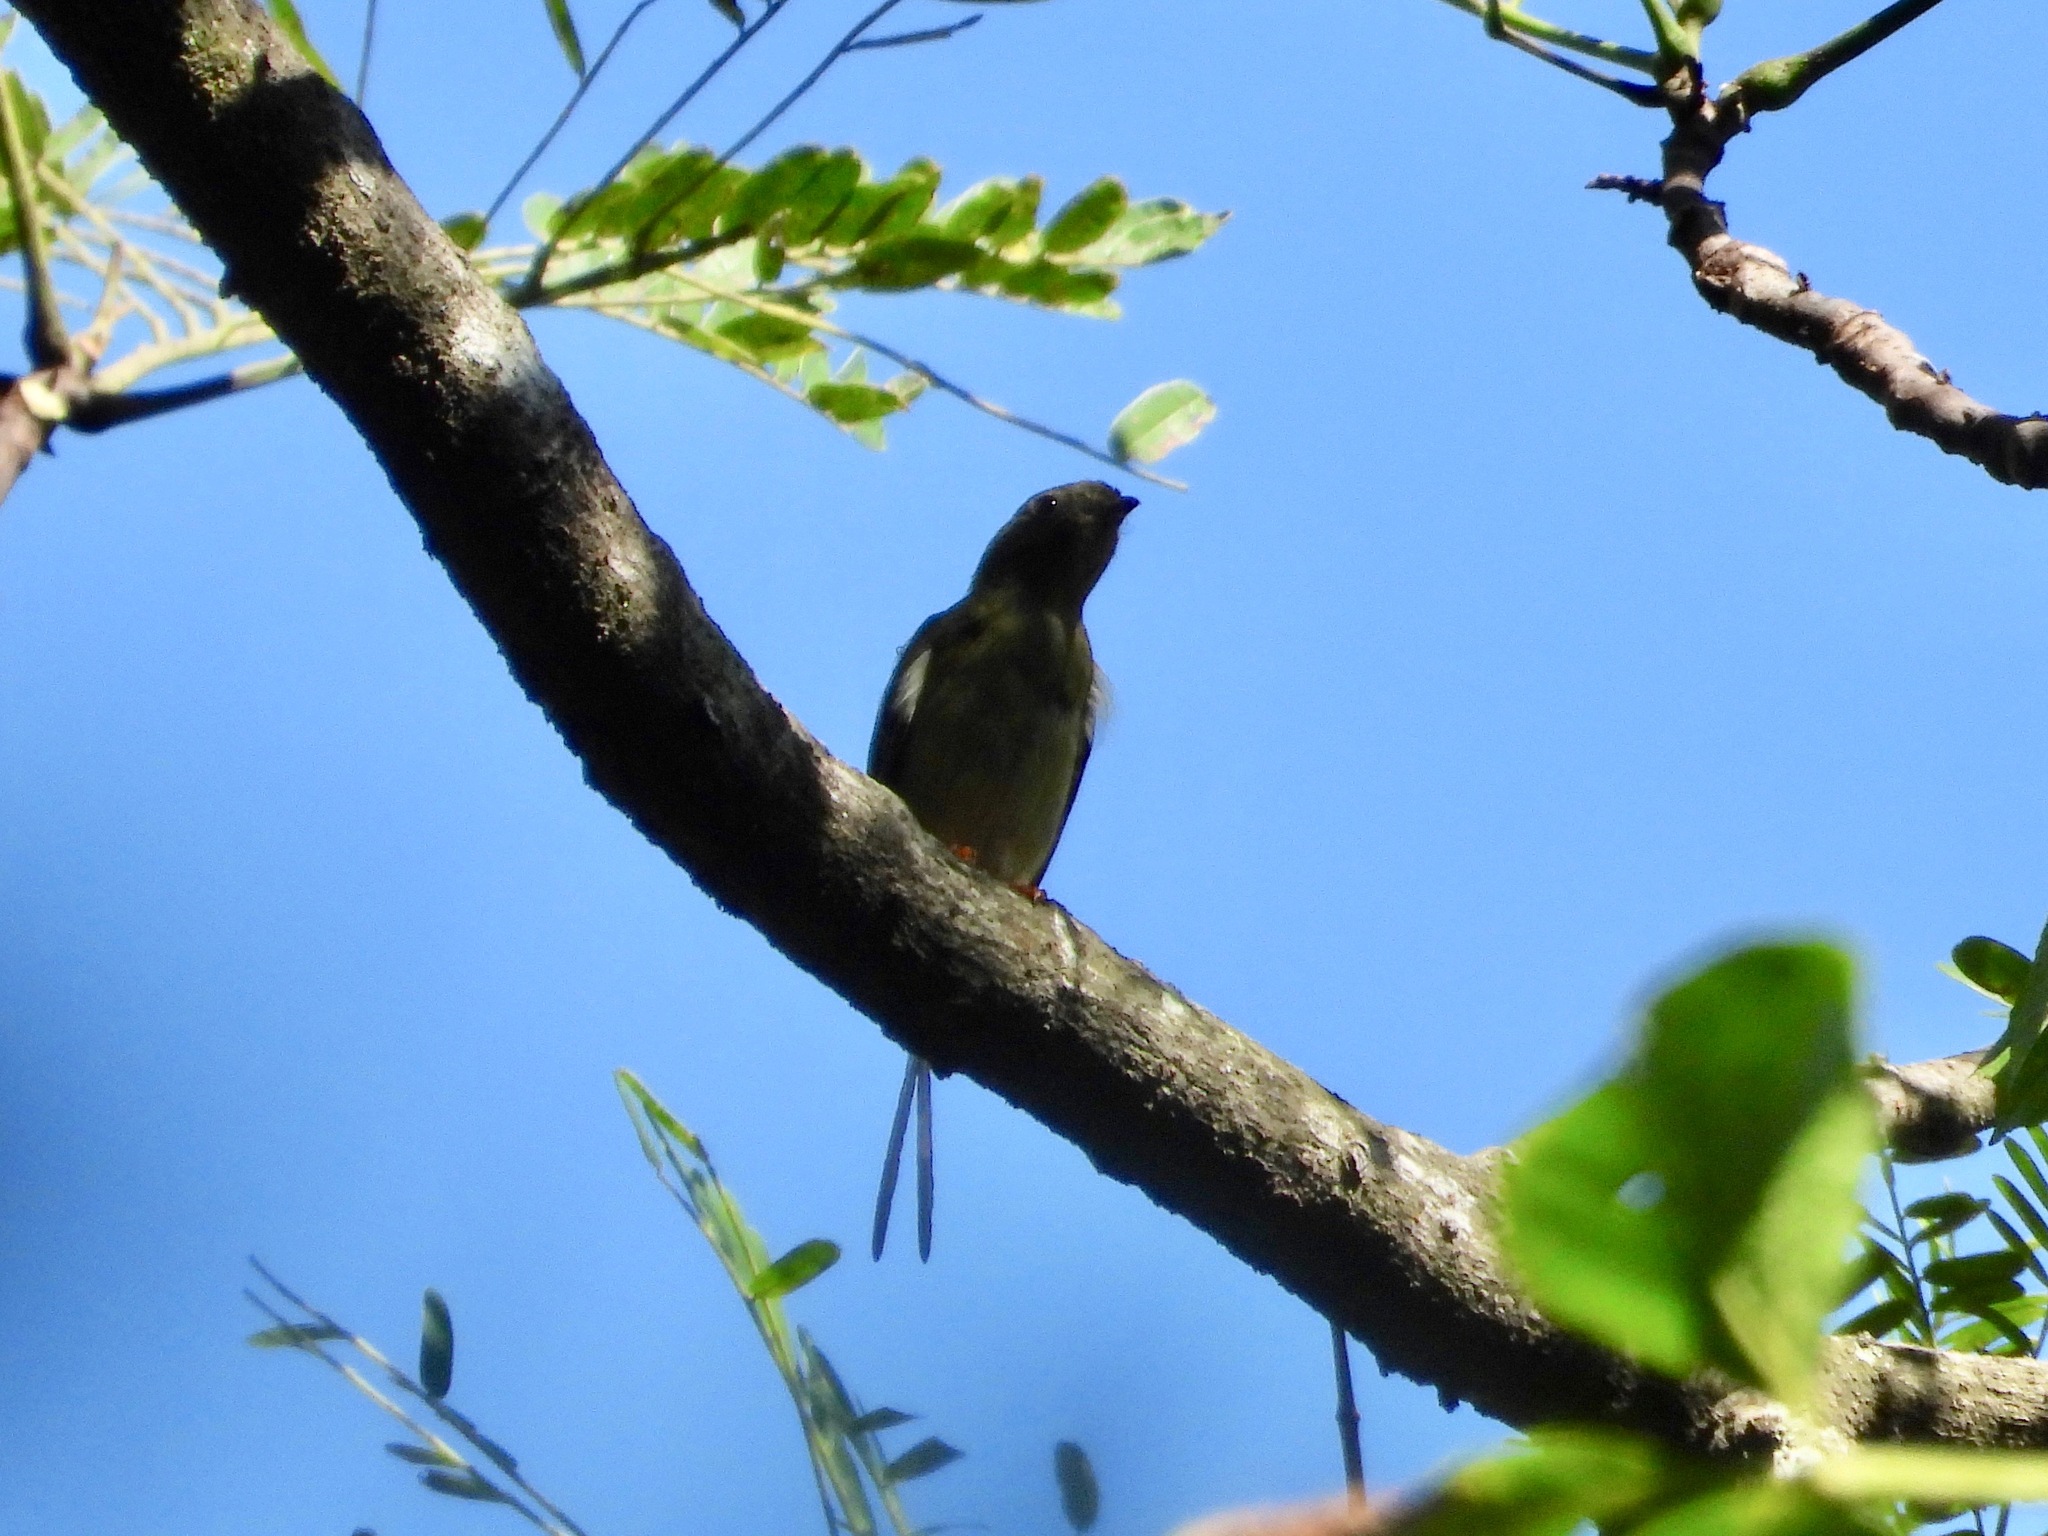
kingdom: Animalia
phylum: Chordata
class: Aves
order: Passeriformes
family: Pipridae
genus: Chiroxiphia
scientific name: Chiroxiphia linearis
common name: Long-tailed manakin
